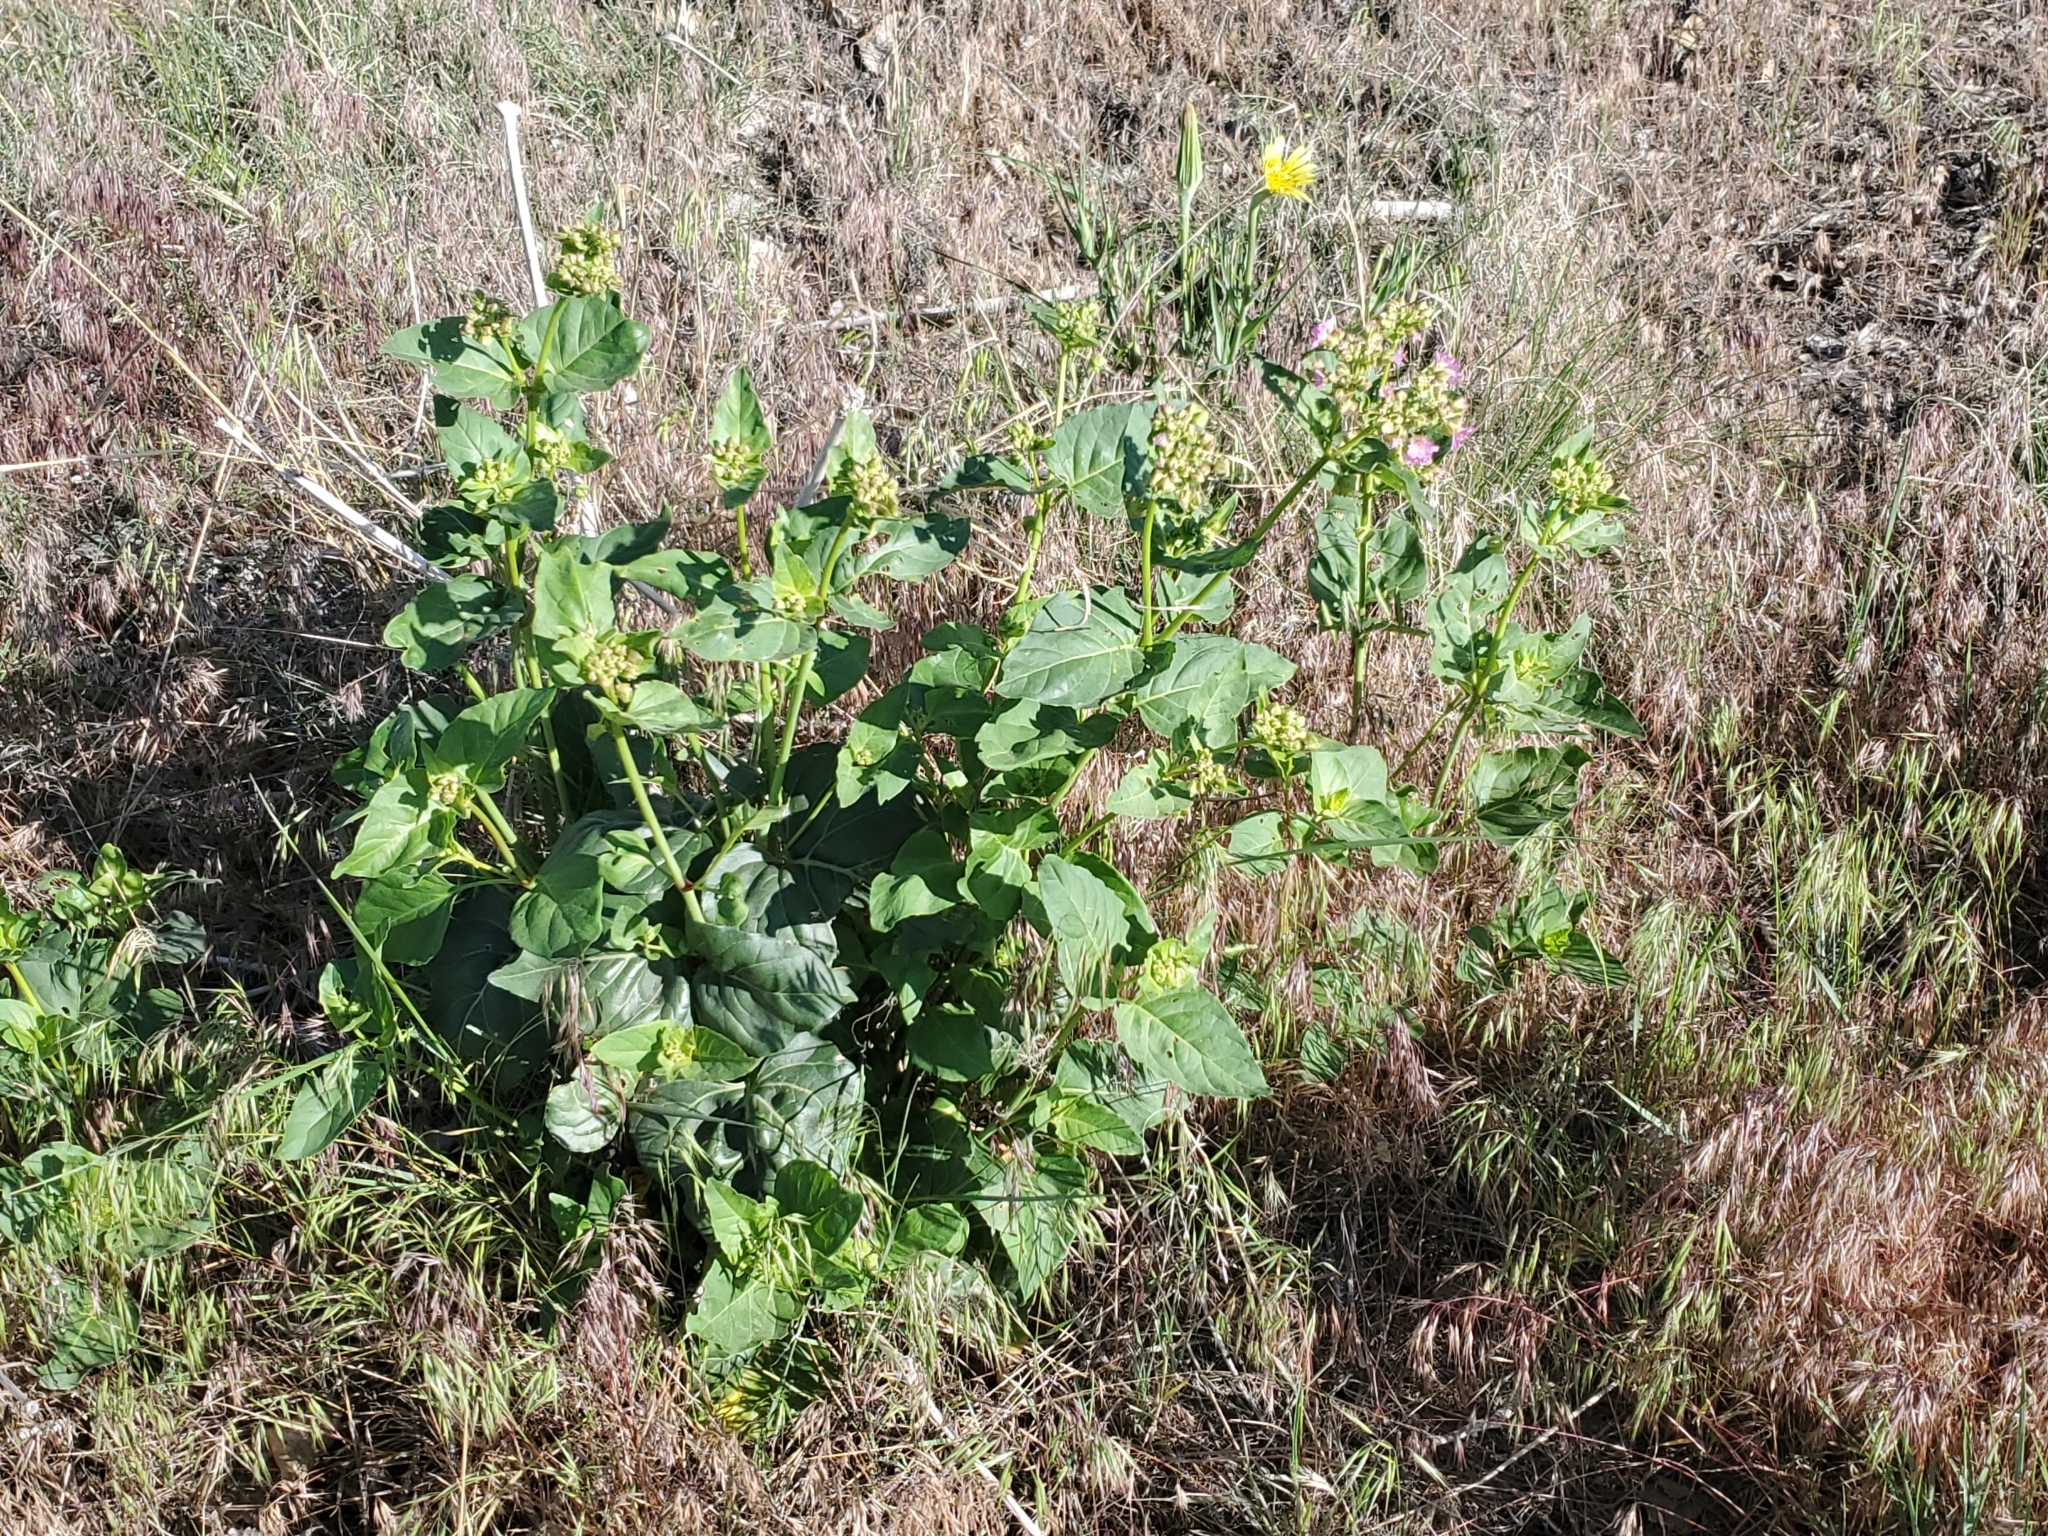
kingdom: Plantae
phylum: Tracheophyta
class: Magnoliopsida
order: Caryophyllales
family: Nyctaginaceae
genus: Mirabilis
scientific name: Mirabilis nyctaginea
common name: Umbrella wort
